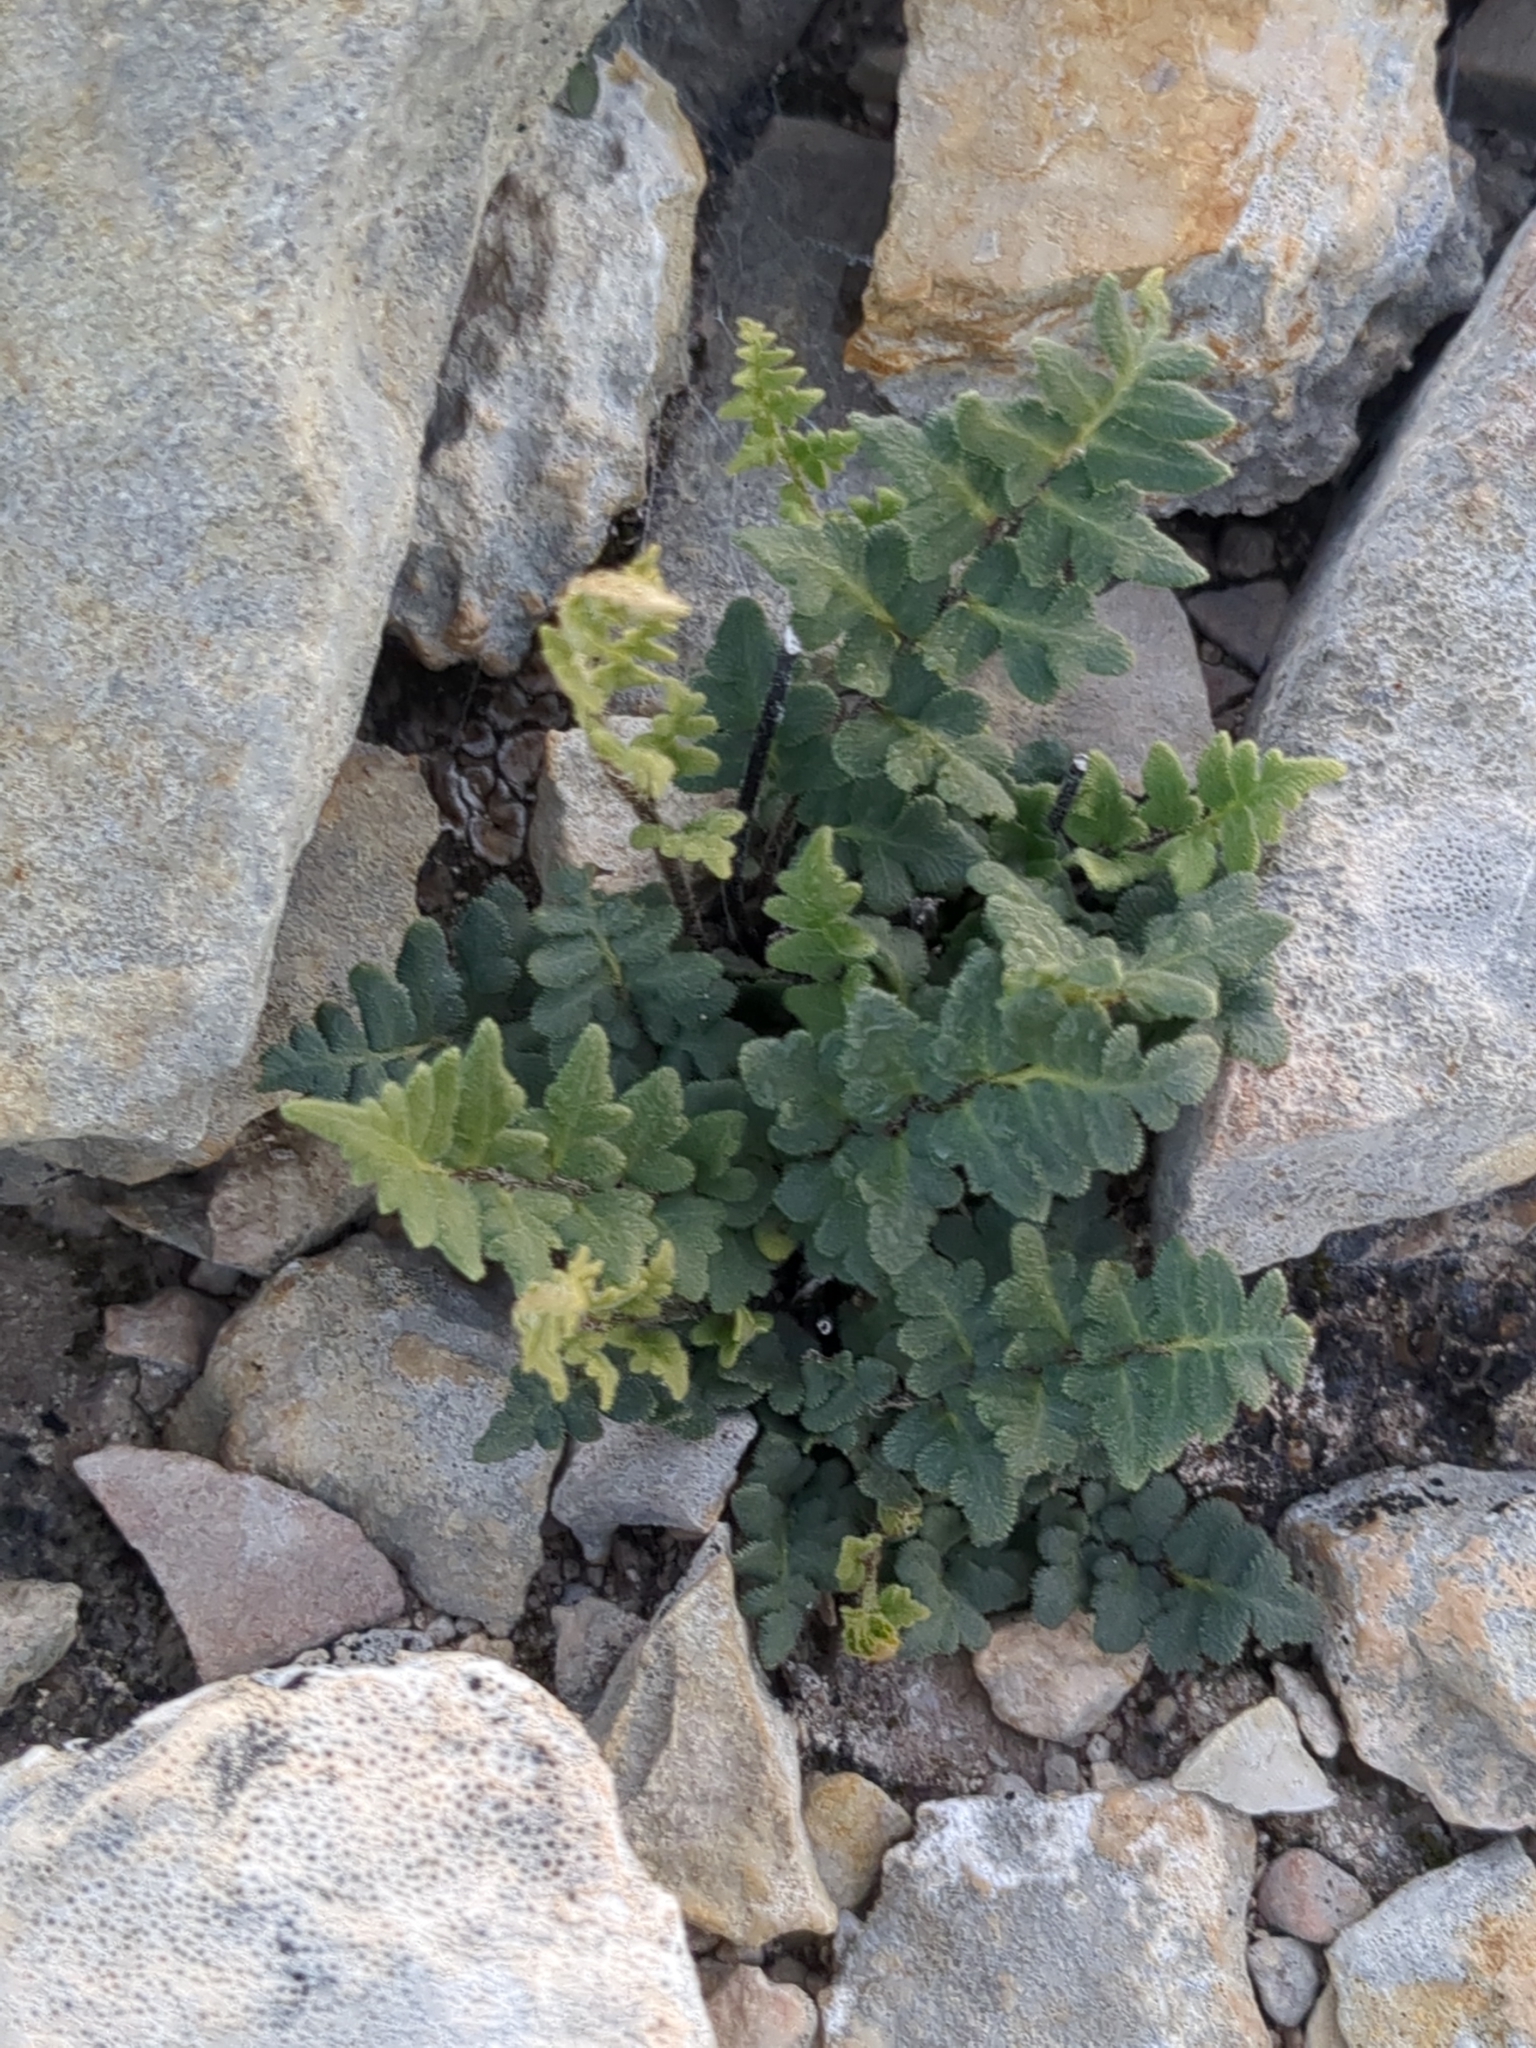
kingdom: Plantae
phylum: Tracheophyta
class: Polypodiopsida
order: Polypodiales
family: Pteridaceae
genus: Myriopteris
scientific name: Myriopteris scabra
